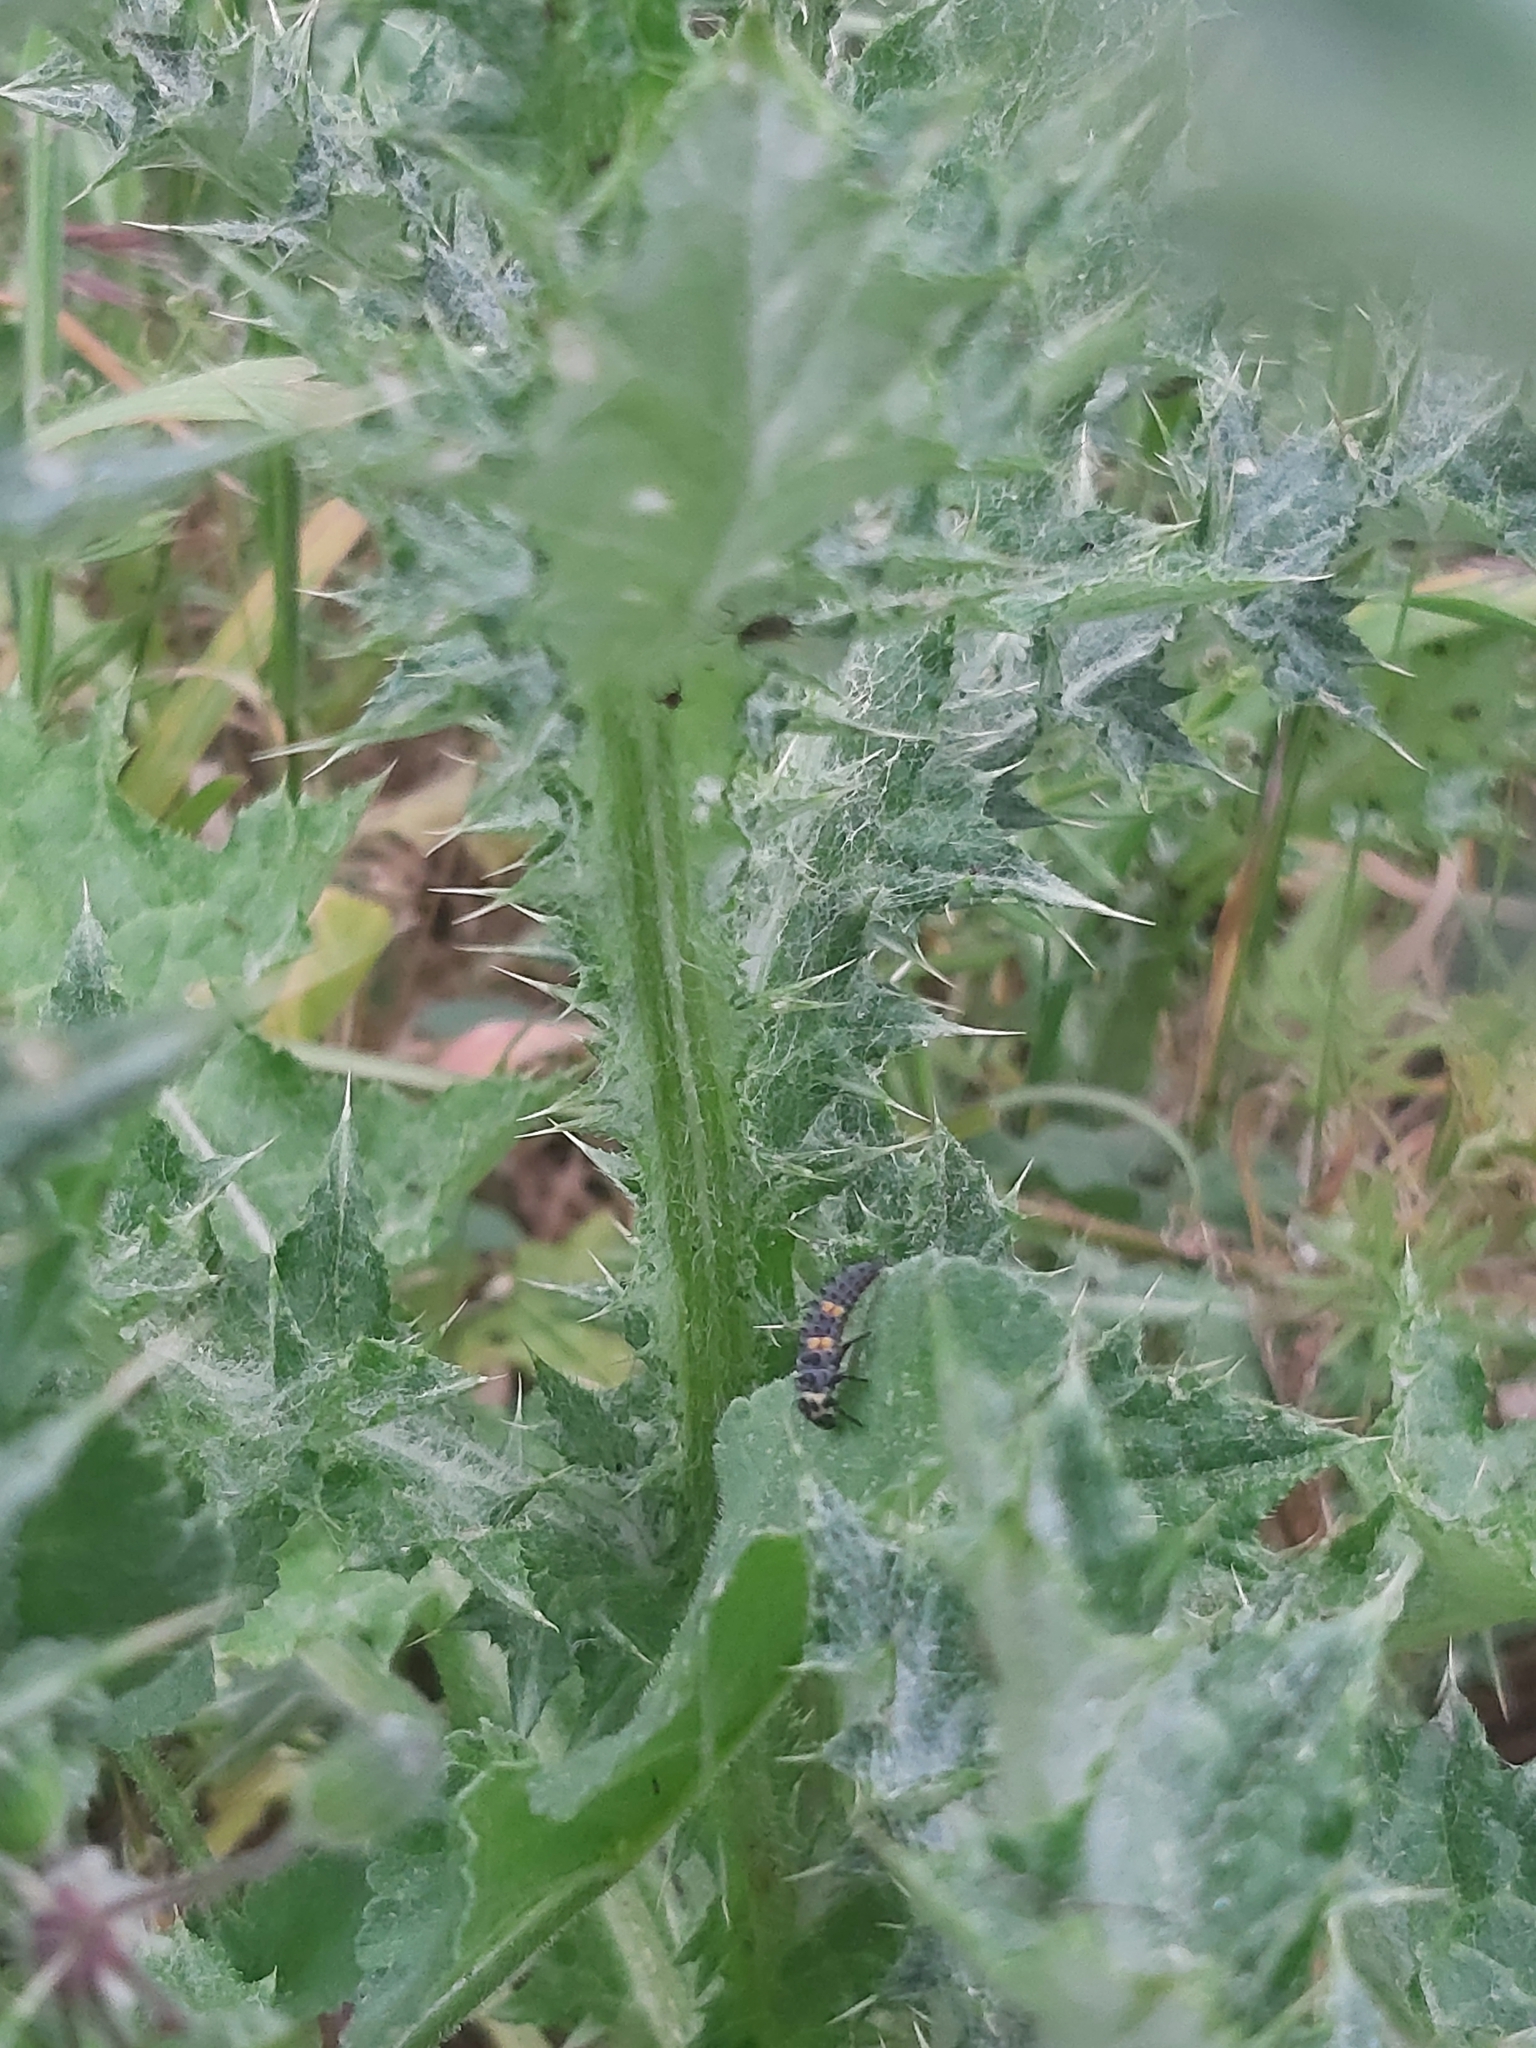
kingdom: Animalia
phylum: Arthropoda
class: Insecta
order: Coleoptera
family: Coccinellidae
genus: Coccinella
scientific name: Coccinella septempunctata
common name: Sevenspotted lady beetle
